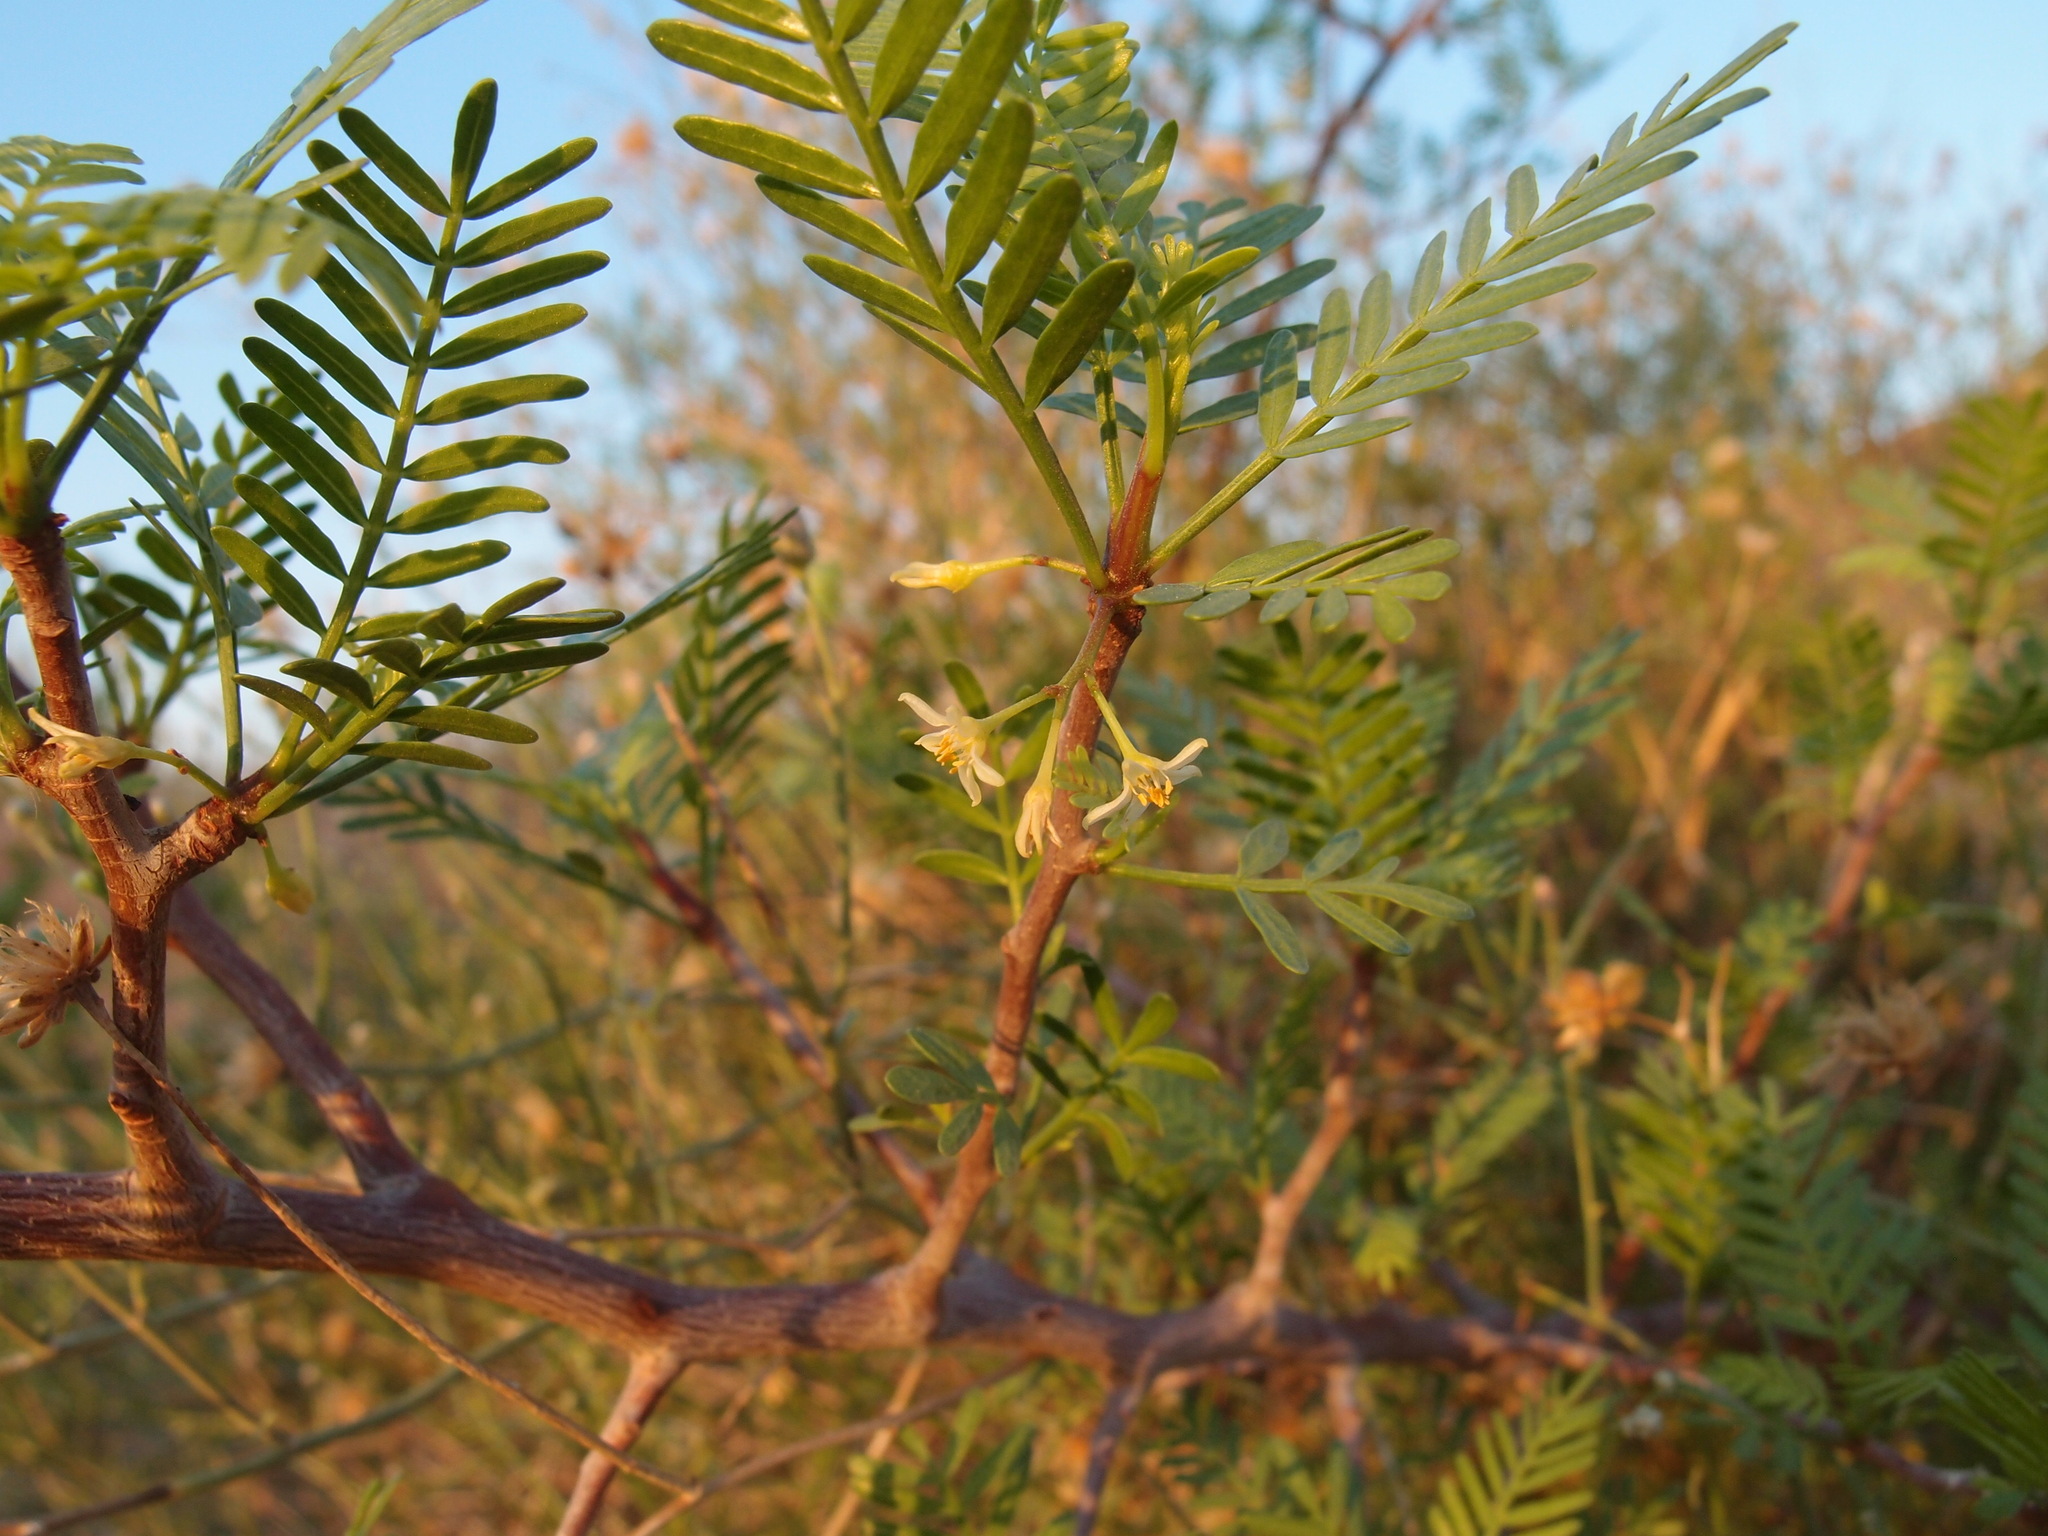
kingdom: Plantae
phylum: Tracheophyta
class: Magnoliopsida
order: Sapindales
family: Burseraceae
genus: Bursera
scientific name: Bursera microphylla
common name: Elephant tree
